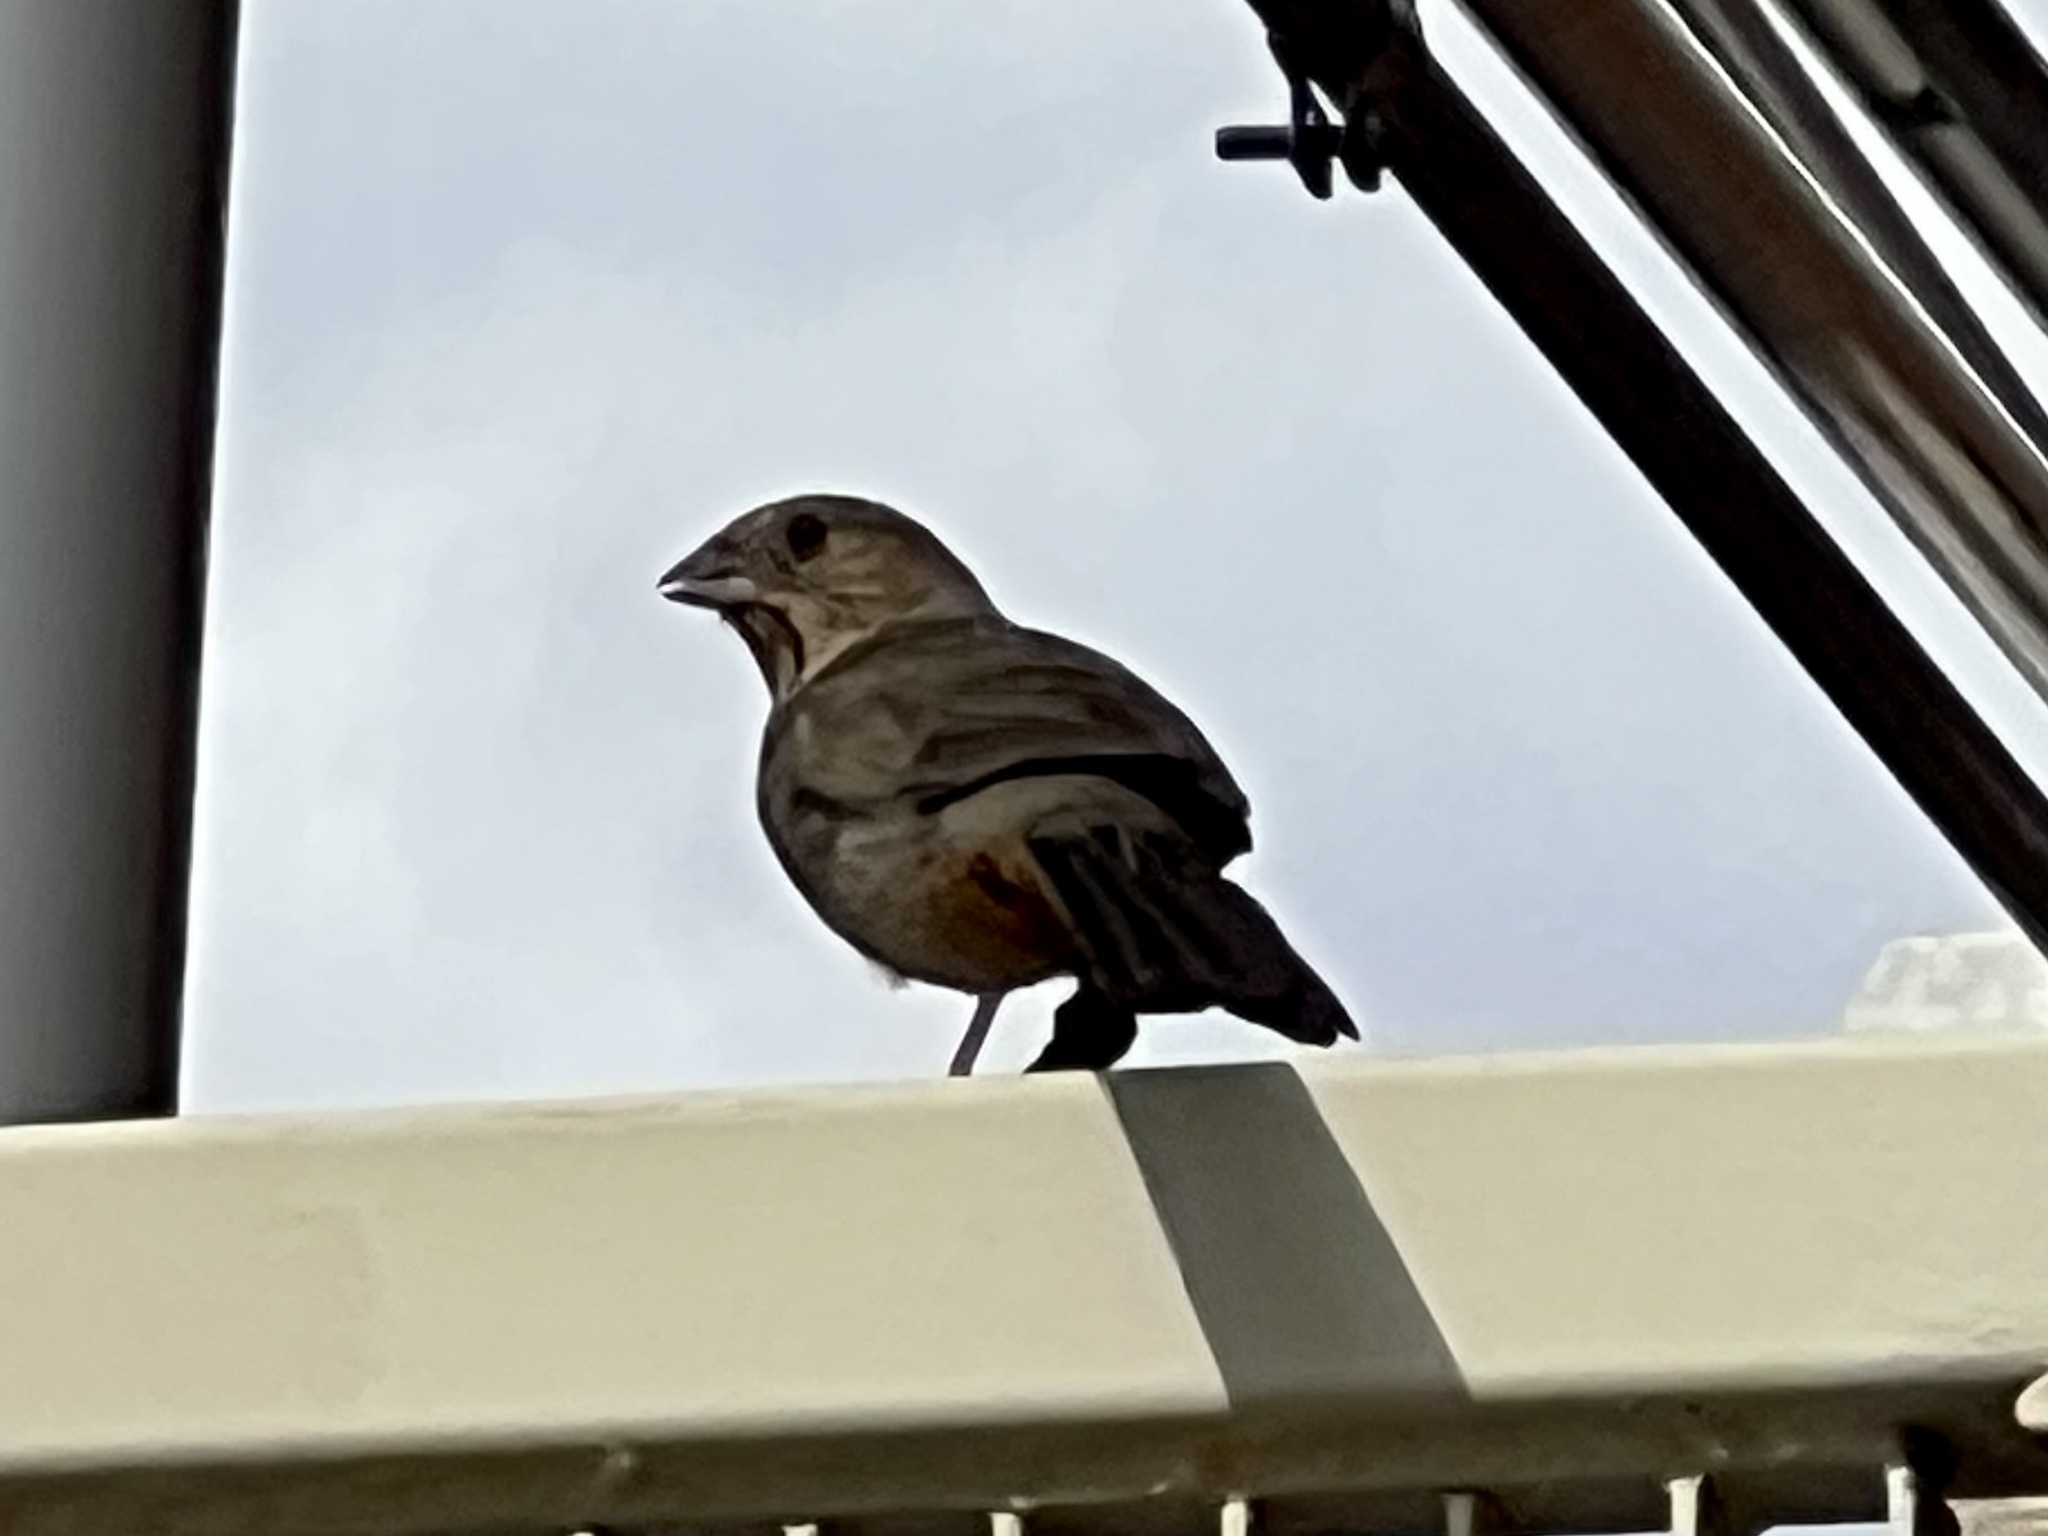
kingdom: Animalia
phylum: Chordata
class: Aves
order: Passeriformes
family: Passerellidae
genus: Melozone
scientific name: Melozone fusca
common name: Canyon towhee
